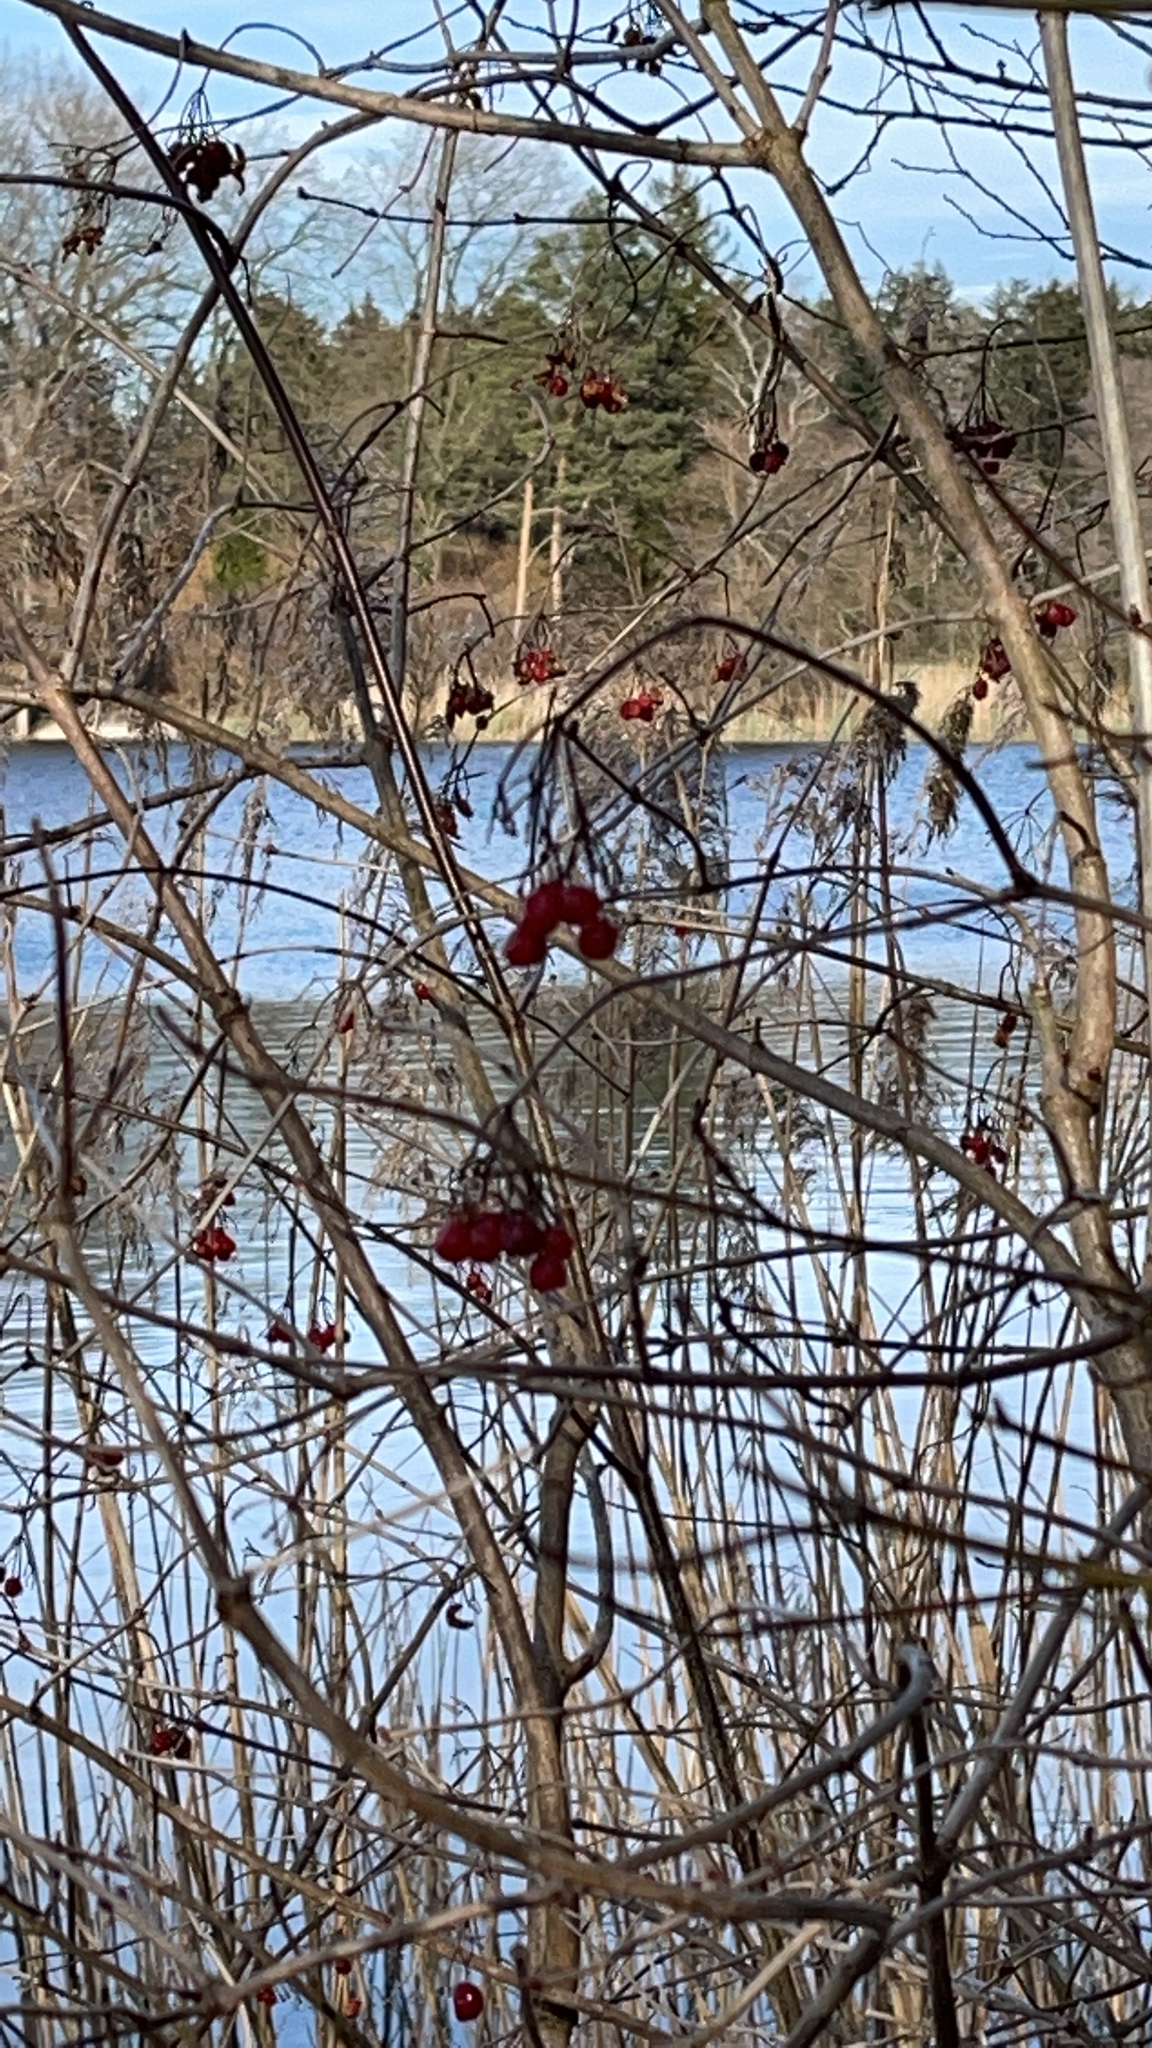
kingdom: Plantae
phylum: Tracheophyta
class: Magnoliopsida
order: Dipsacales
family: Viburnaceae
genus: Viburnum
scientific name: Viburnum opulus
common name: Guelder-rose
